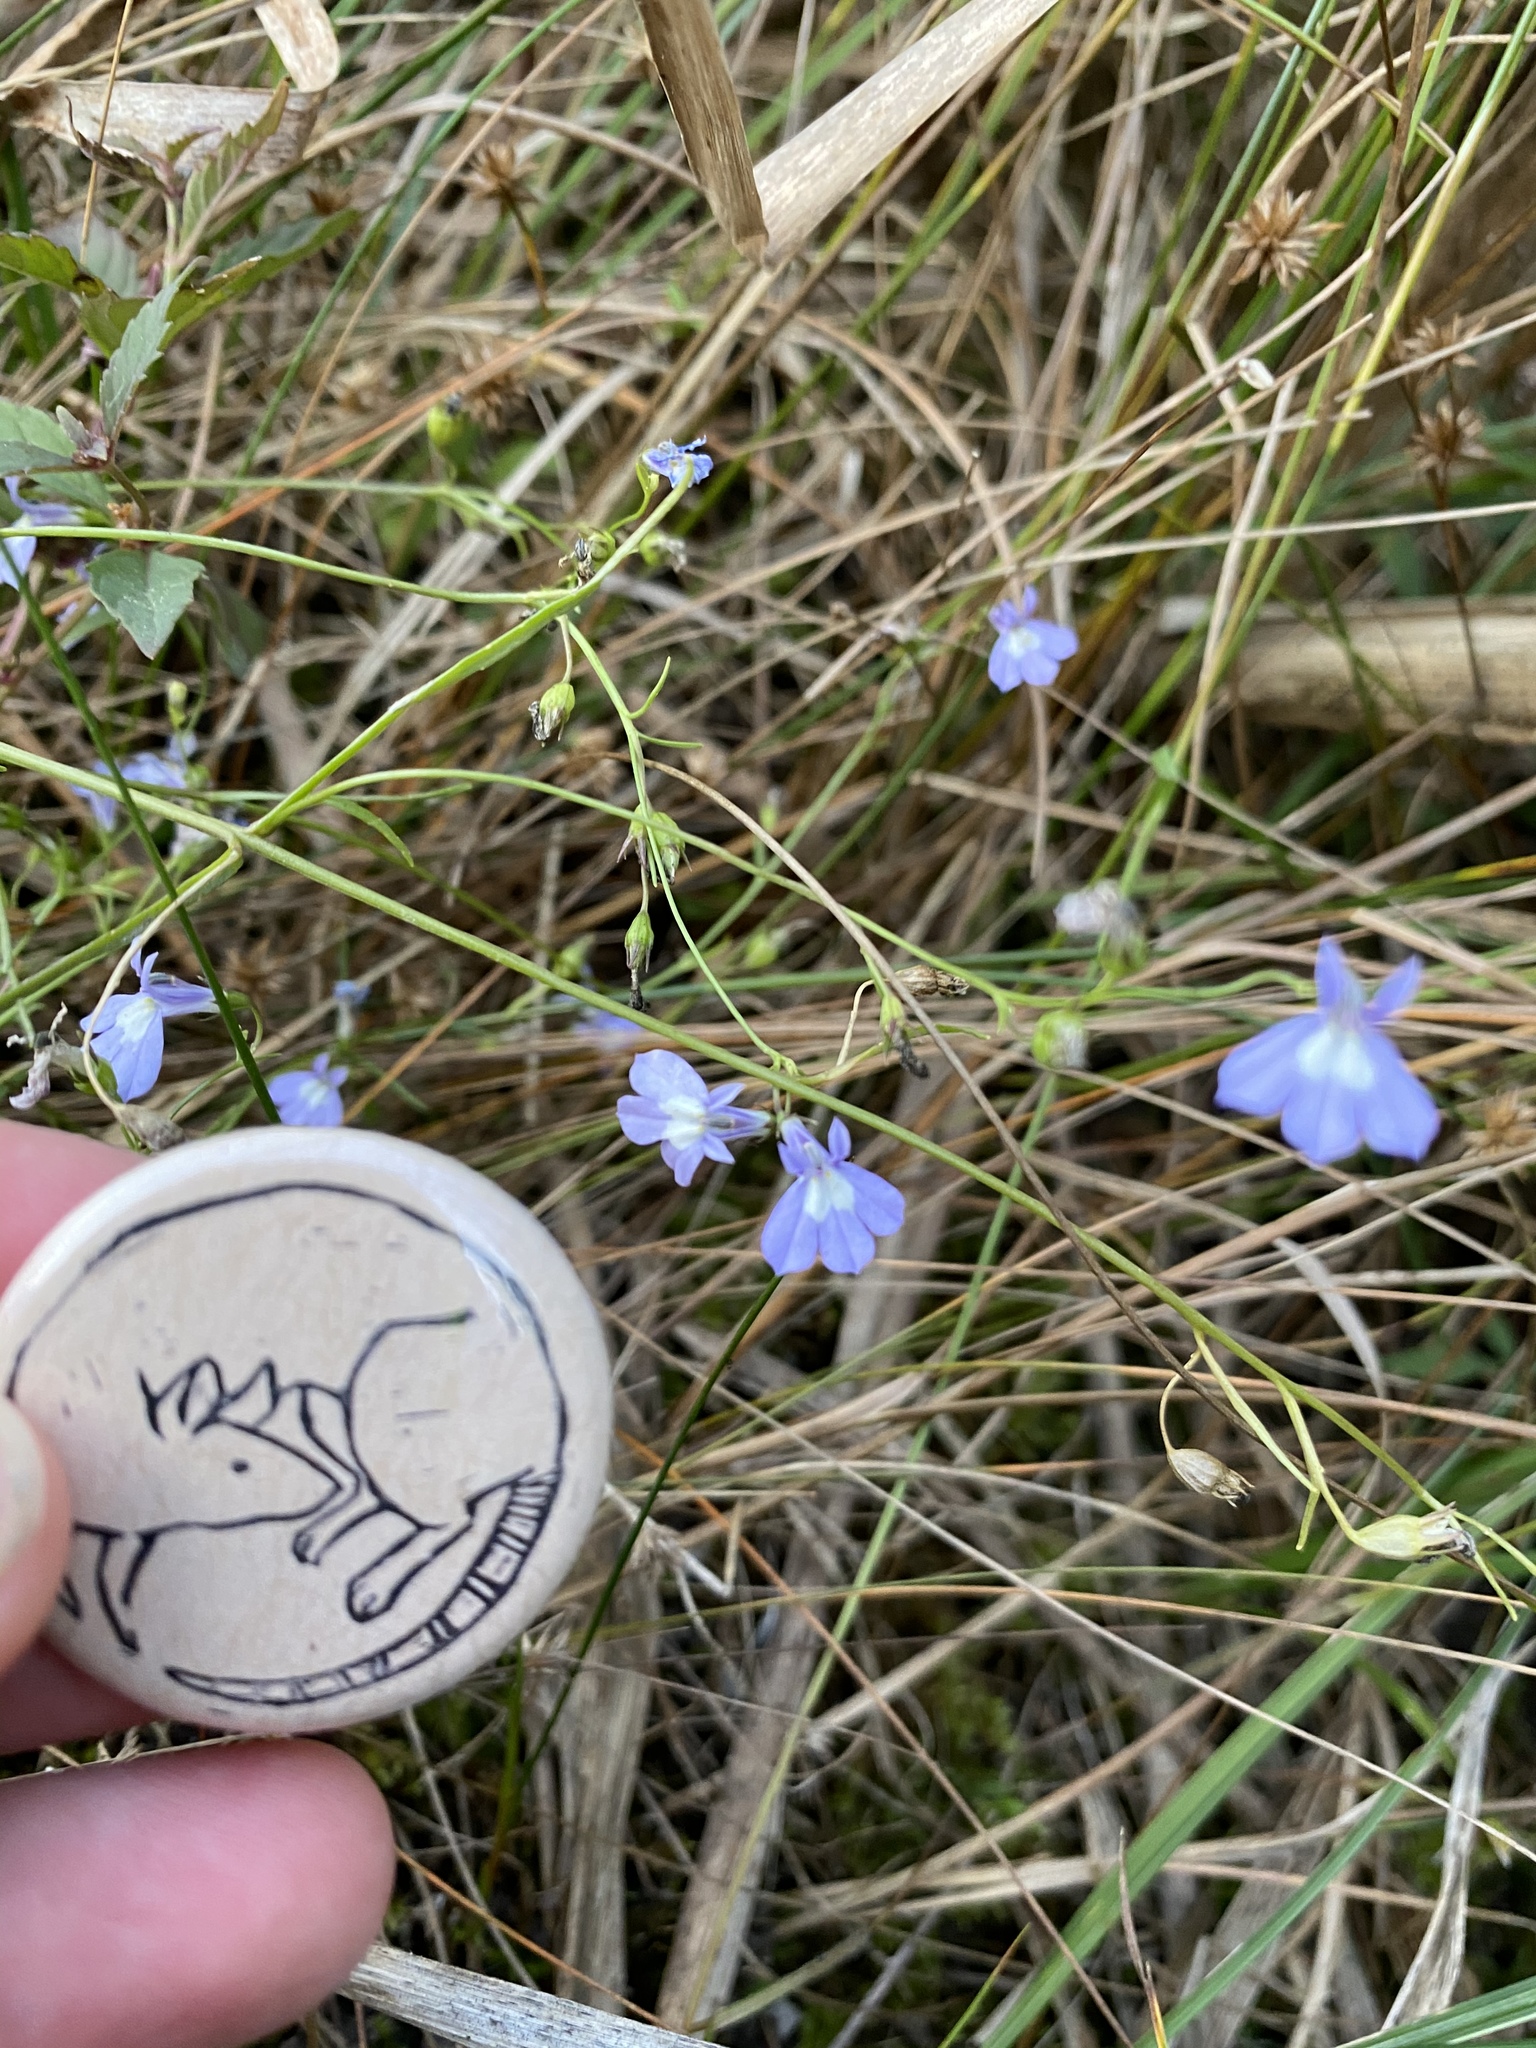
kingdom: Plantae
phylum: Tracheophyta
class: Magnoliopsida
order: Asterales
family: Campanulaceae
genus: Lobelia
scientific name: Lobelia kalmii
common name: Kalm's lobelia
